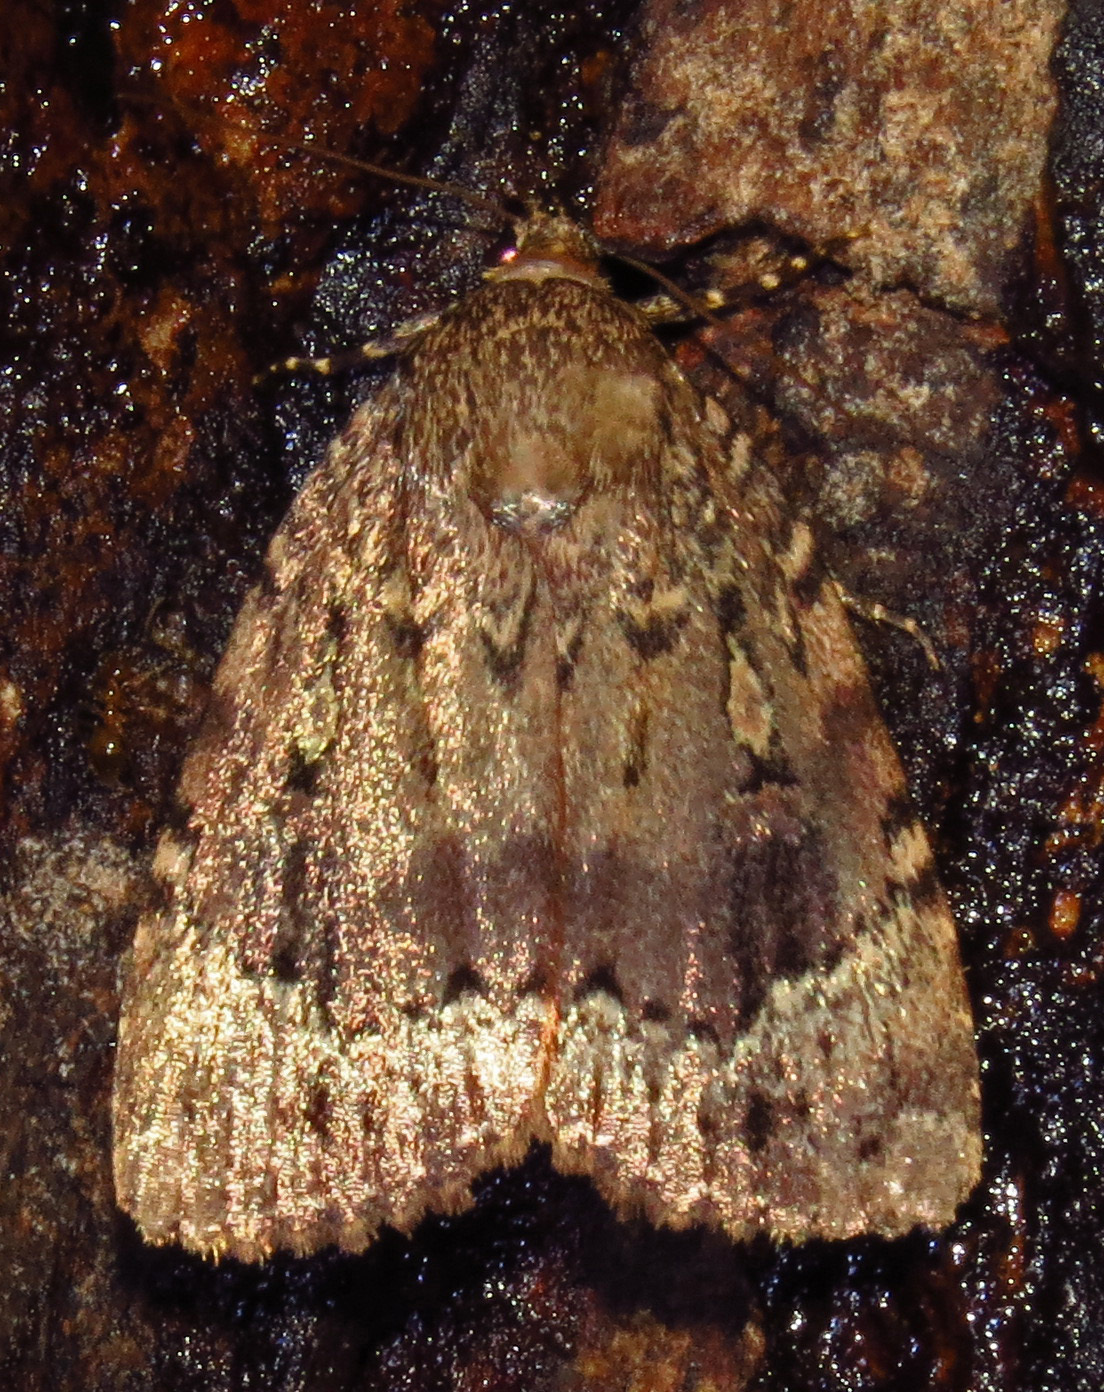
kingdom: Animalia
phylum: Arthropoda
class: Insecta
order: Lepidoptera
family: Noctuidae
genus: Amphipyra
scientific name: Amphipyra pyramidoides
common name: American copper underwing
